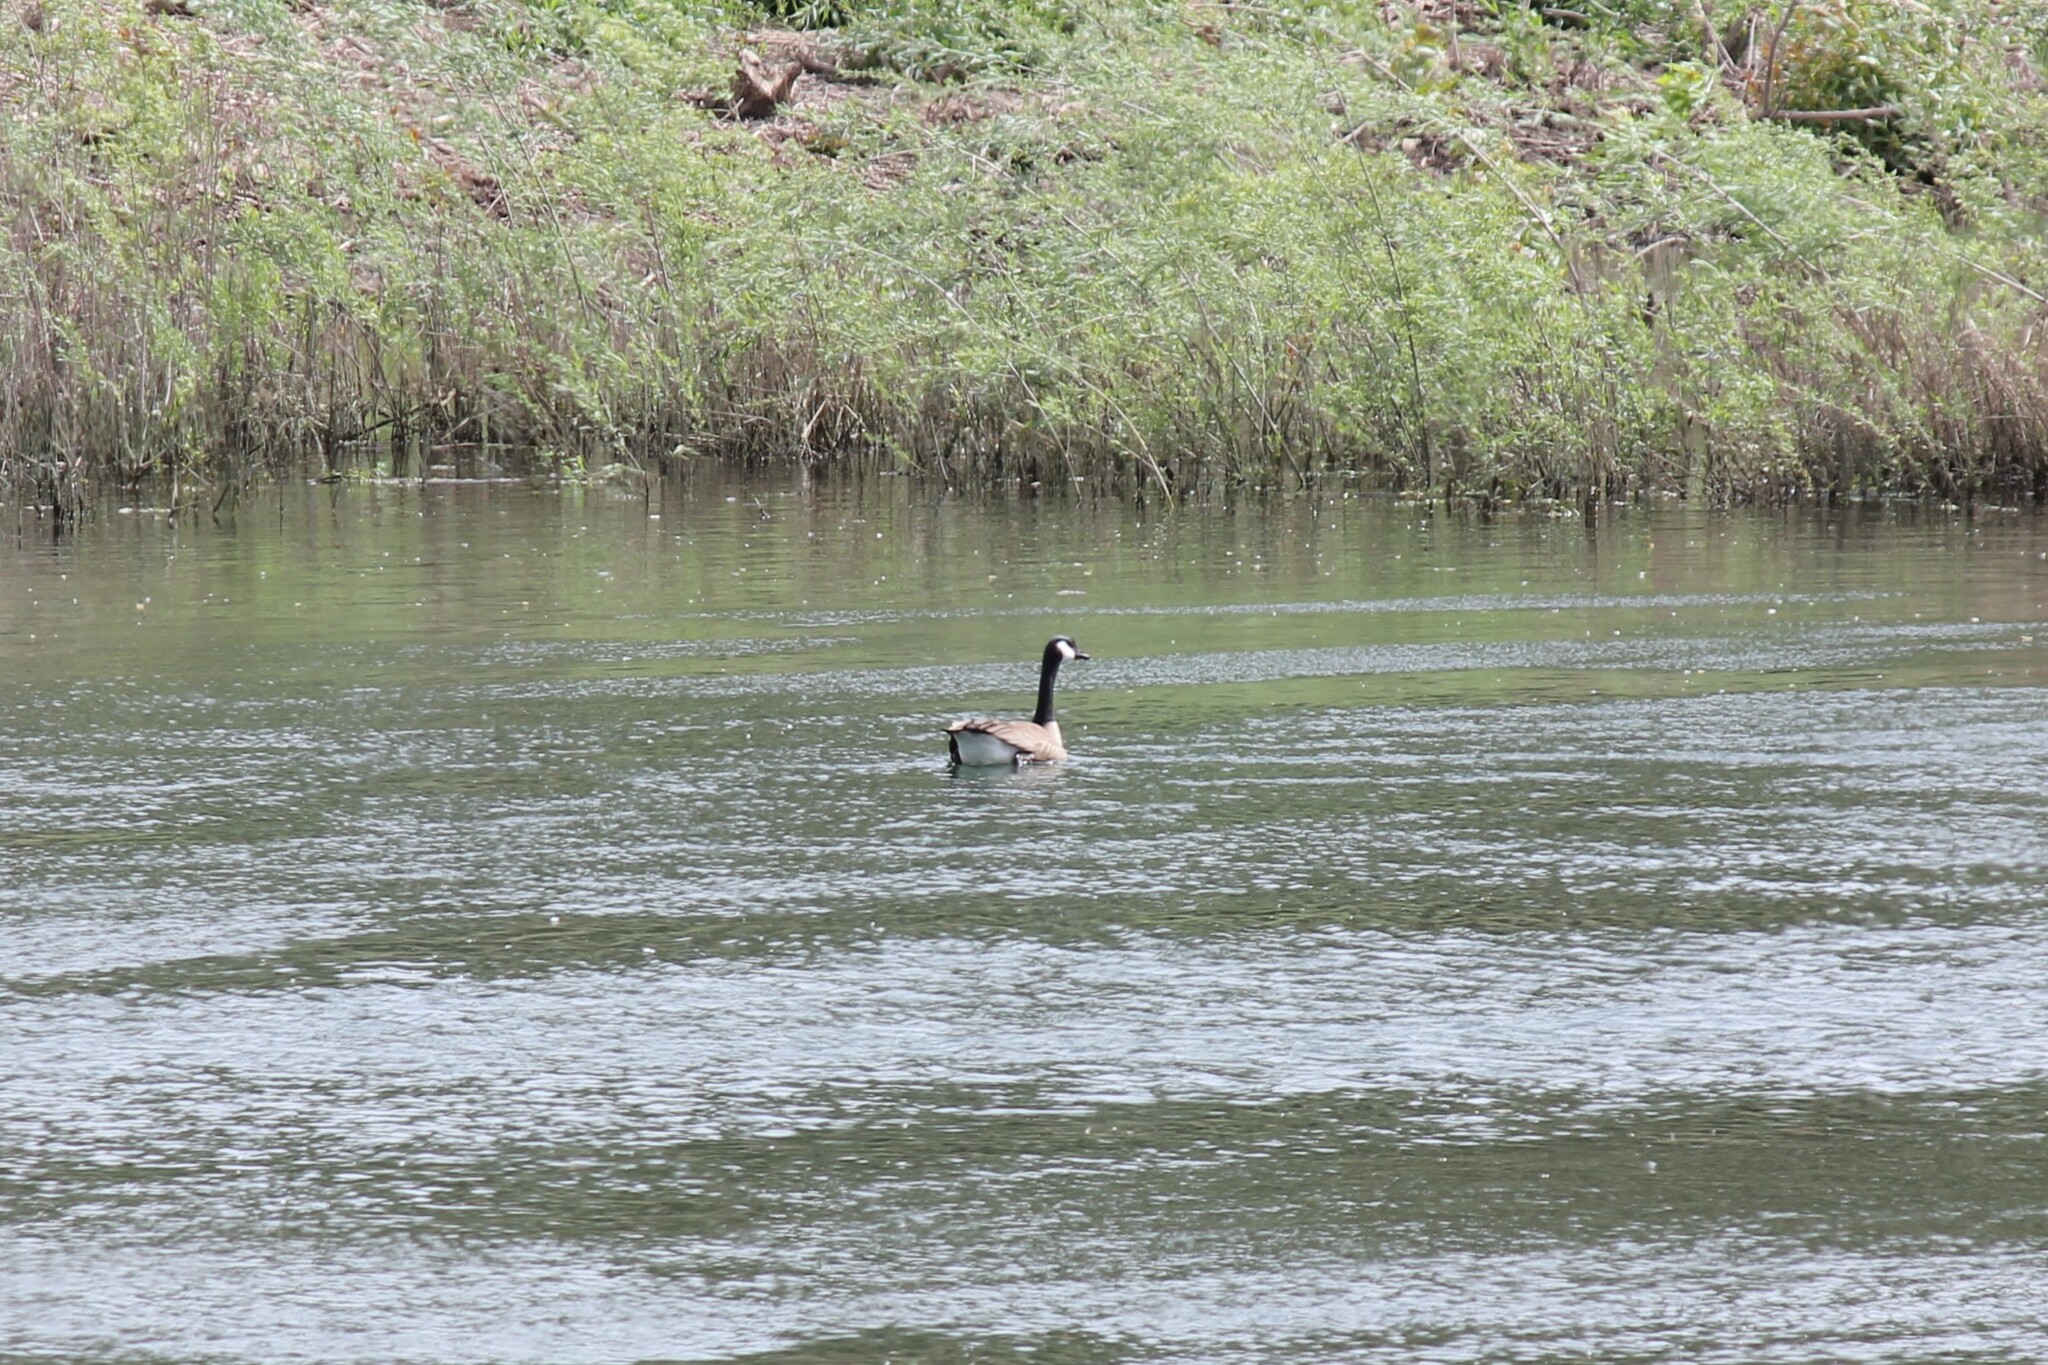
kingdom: Animalia
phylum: Chordata
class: Aves
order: Anseriformes
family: Anatidae
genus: Branta
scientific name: Branta canadensis
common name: Canada goose
